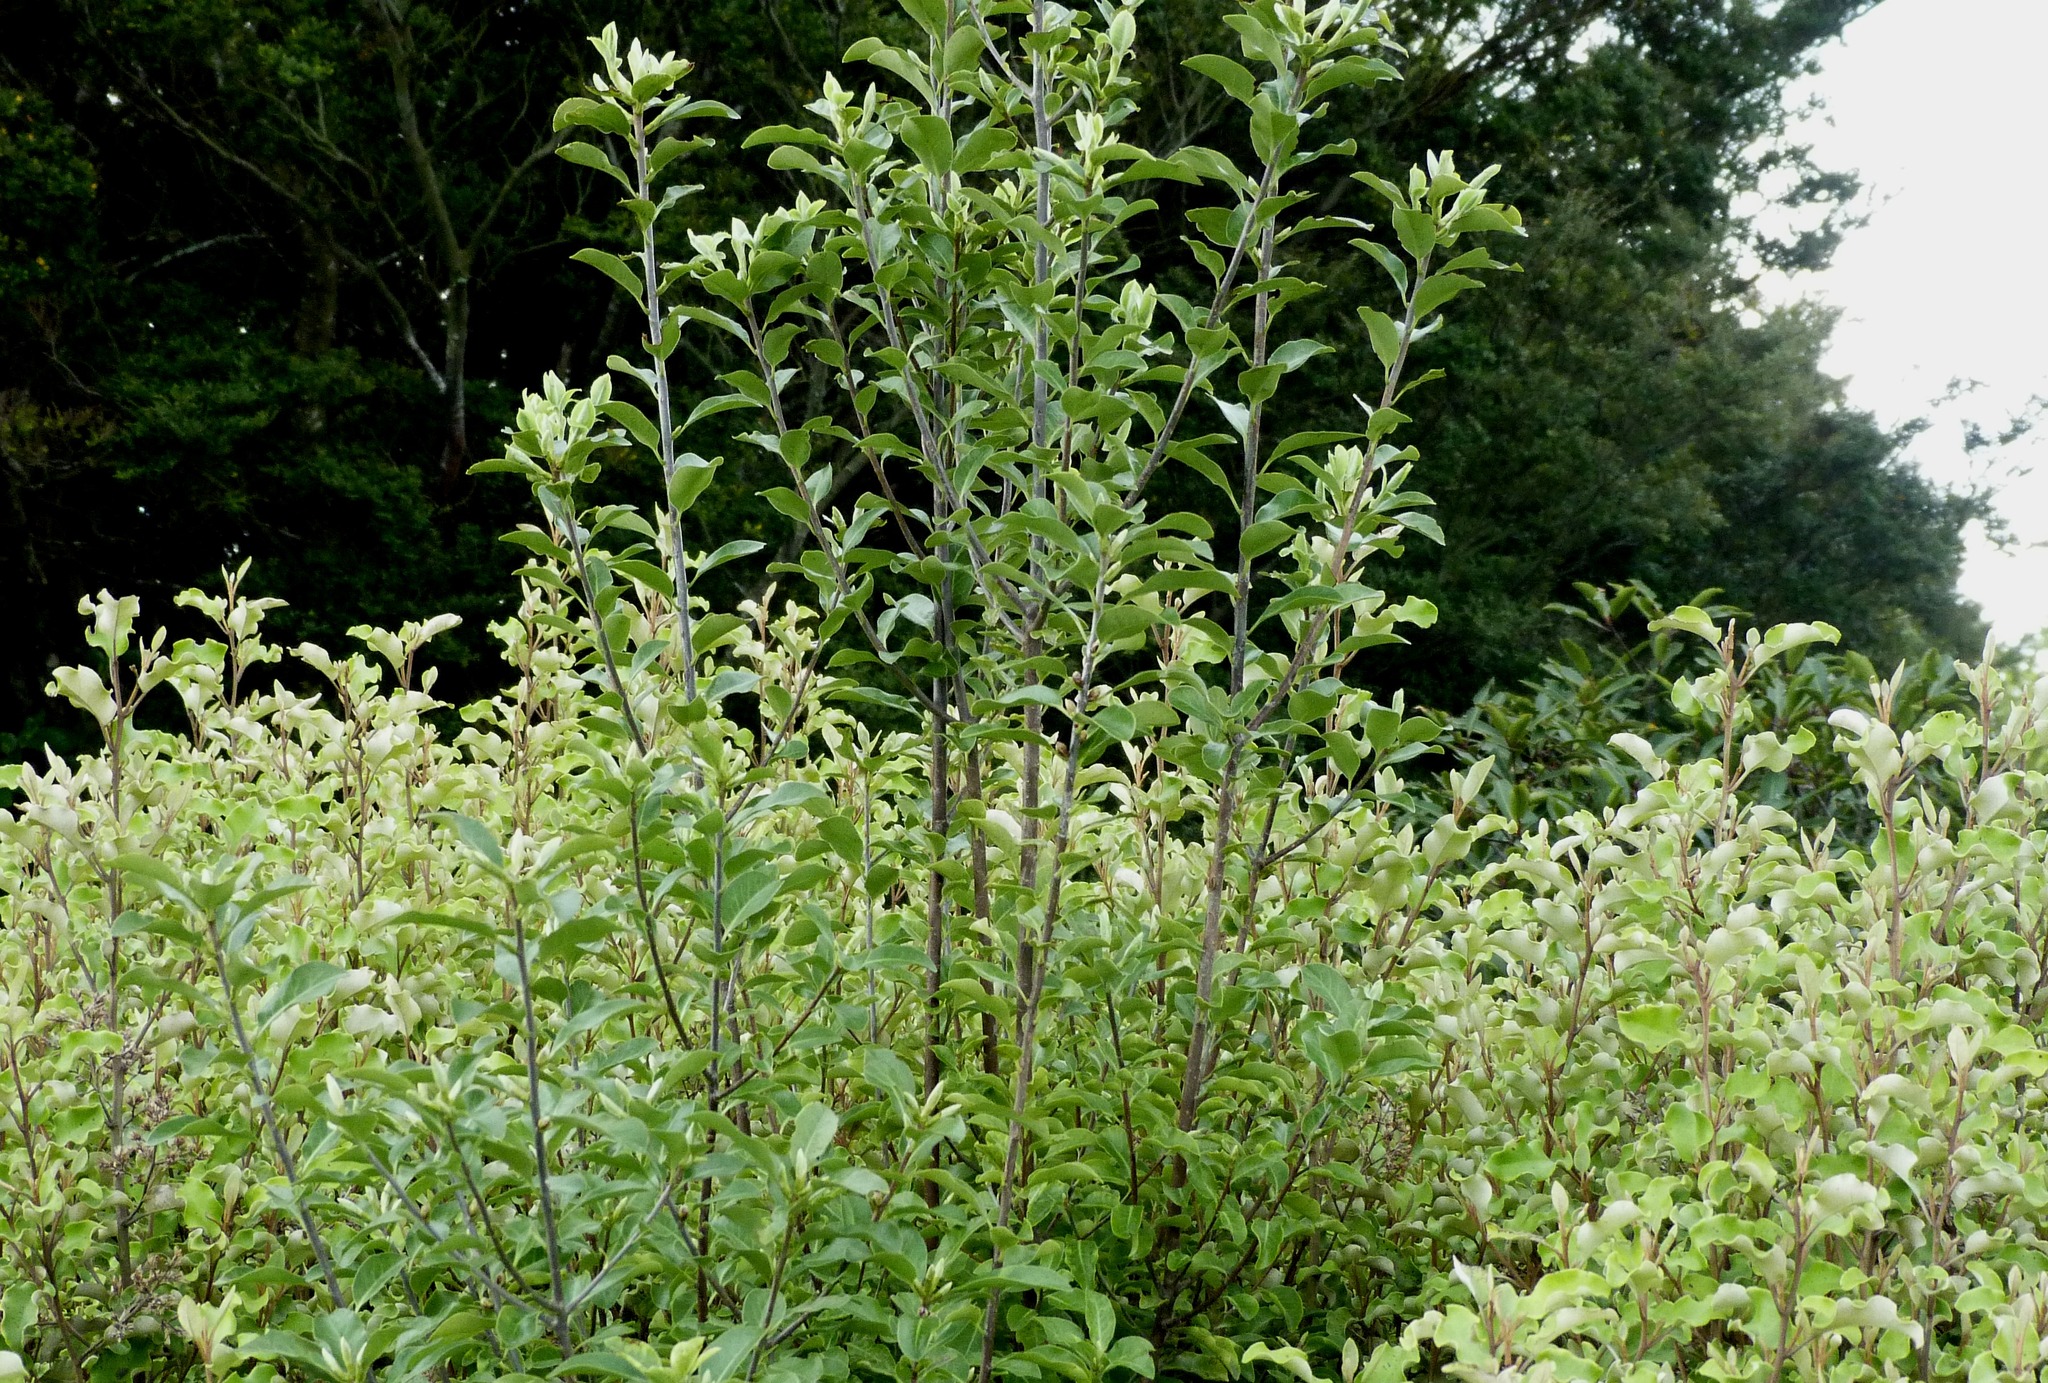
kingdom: Plantae
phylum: Tracheophyta
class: Magnoliopsida
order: Apiales
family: Pittosporaceae
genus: Pittosporum
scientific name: Pittosporum tenuifolium
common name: Kohuhu
